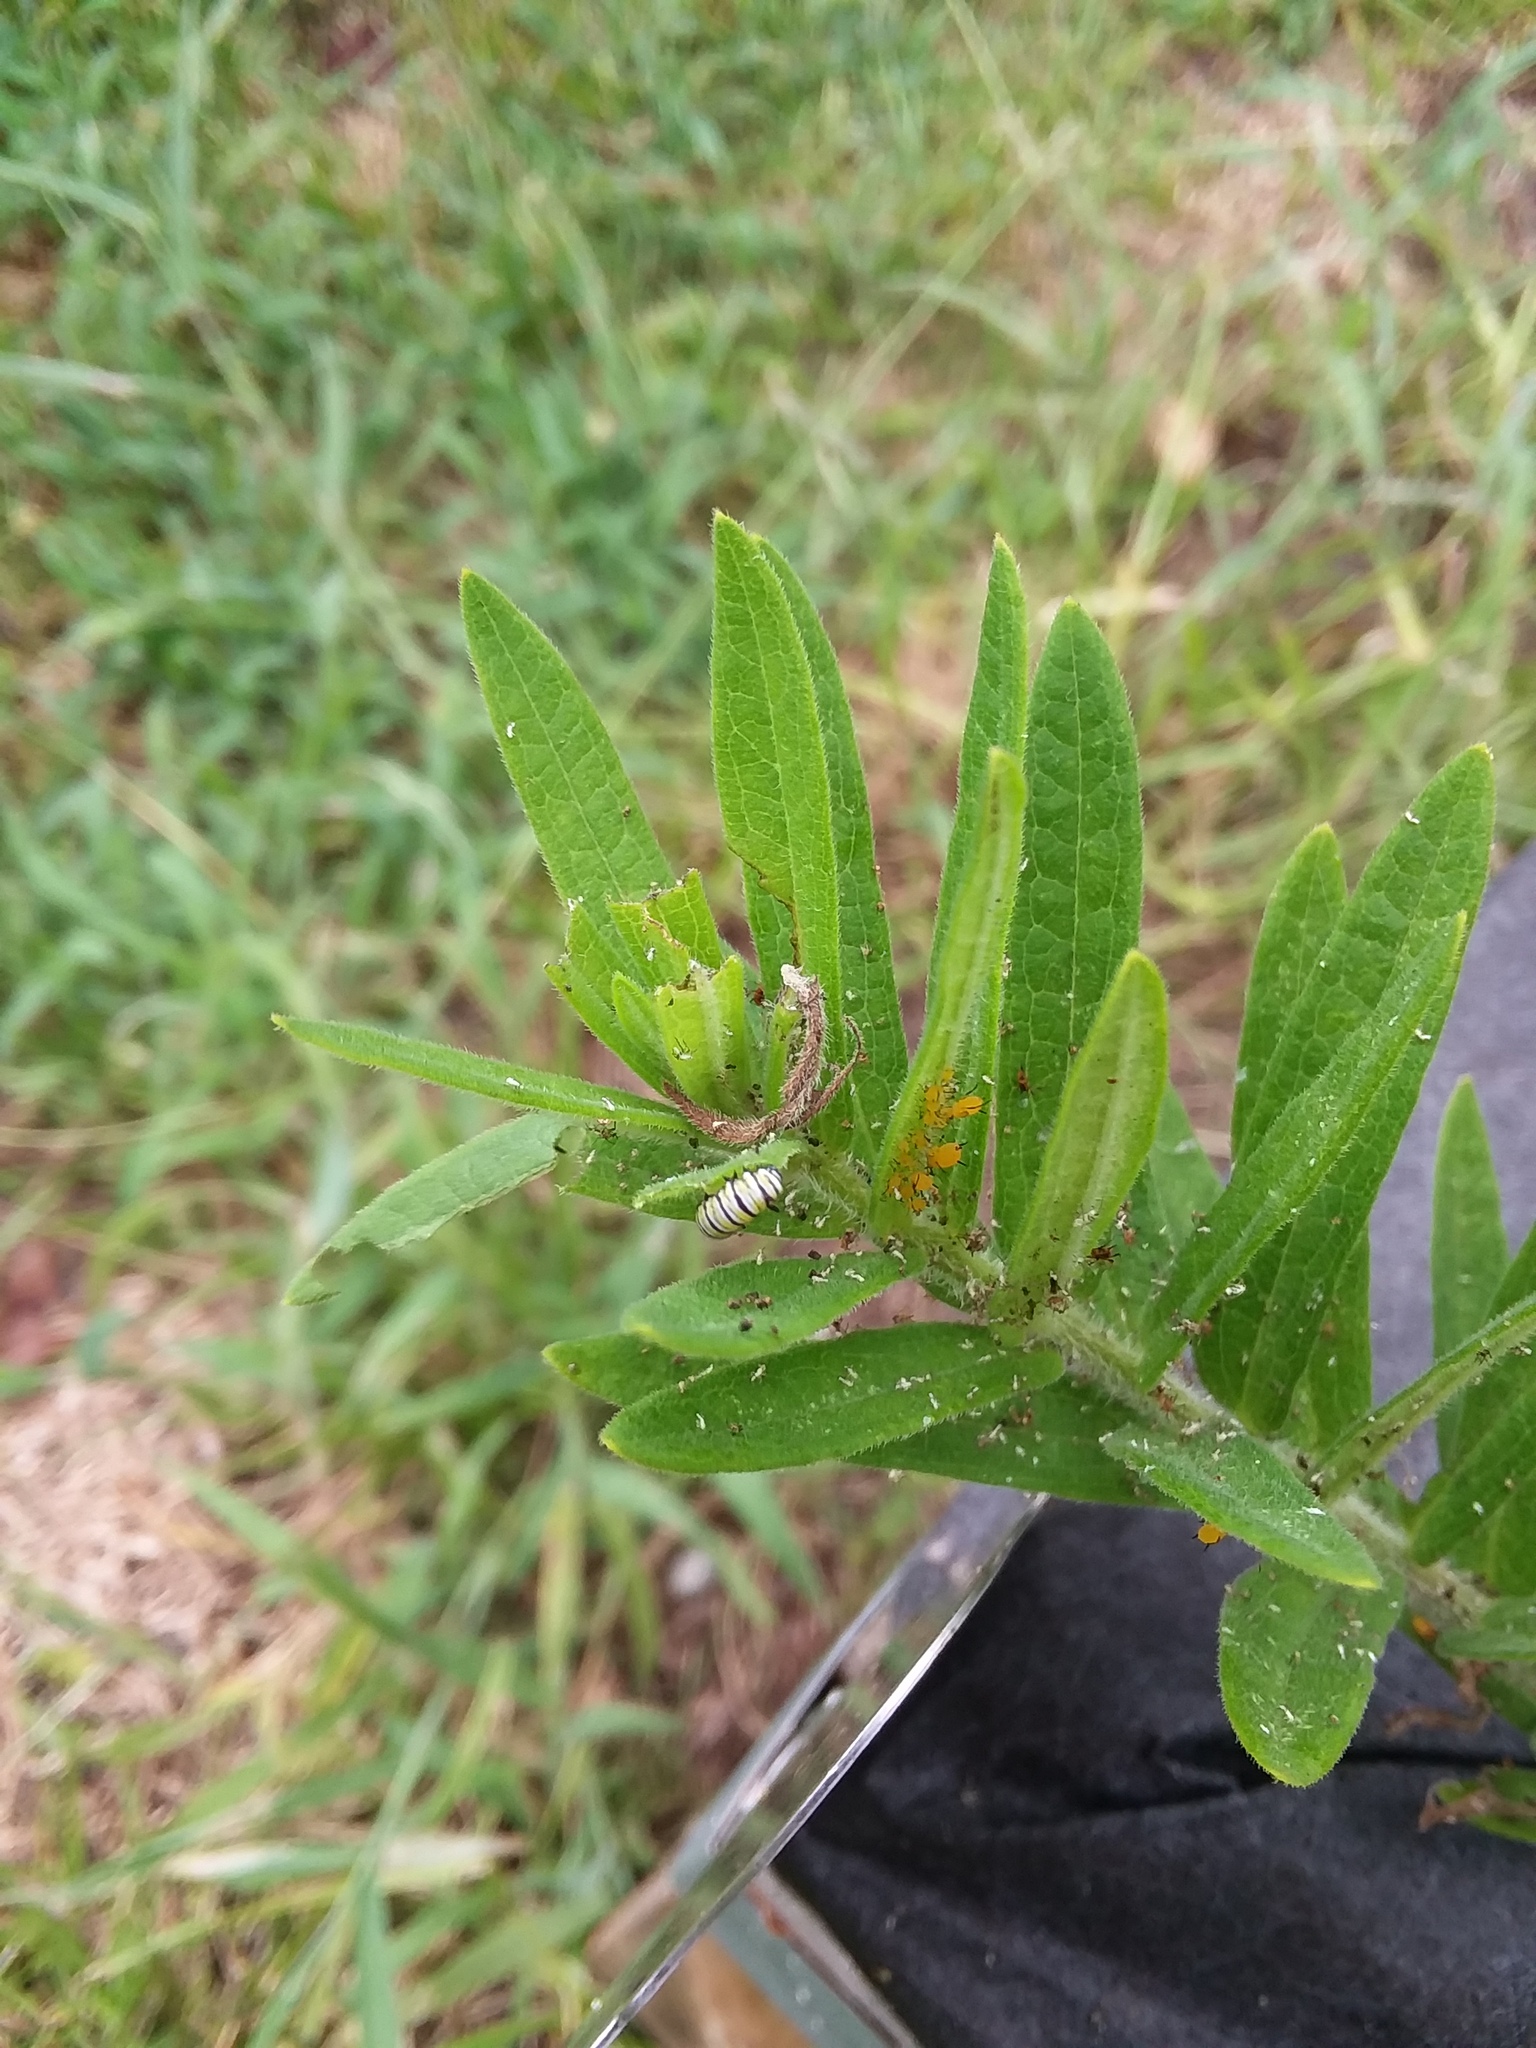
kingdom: Animalia
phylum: Arthropoda
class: Insecta
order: Lepidoptera
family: Nymphalidae
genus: Danaus
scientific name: Danaus plexippus
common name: Monarch
